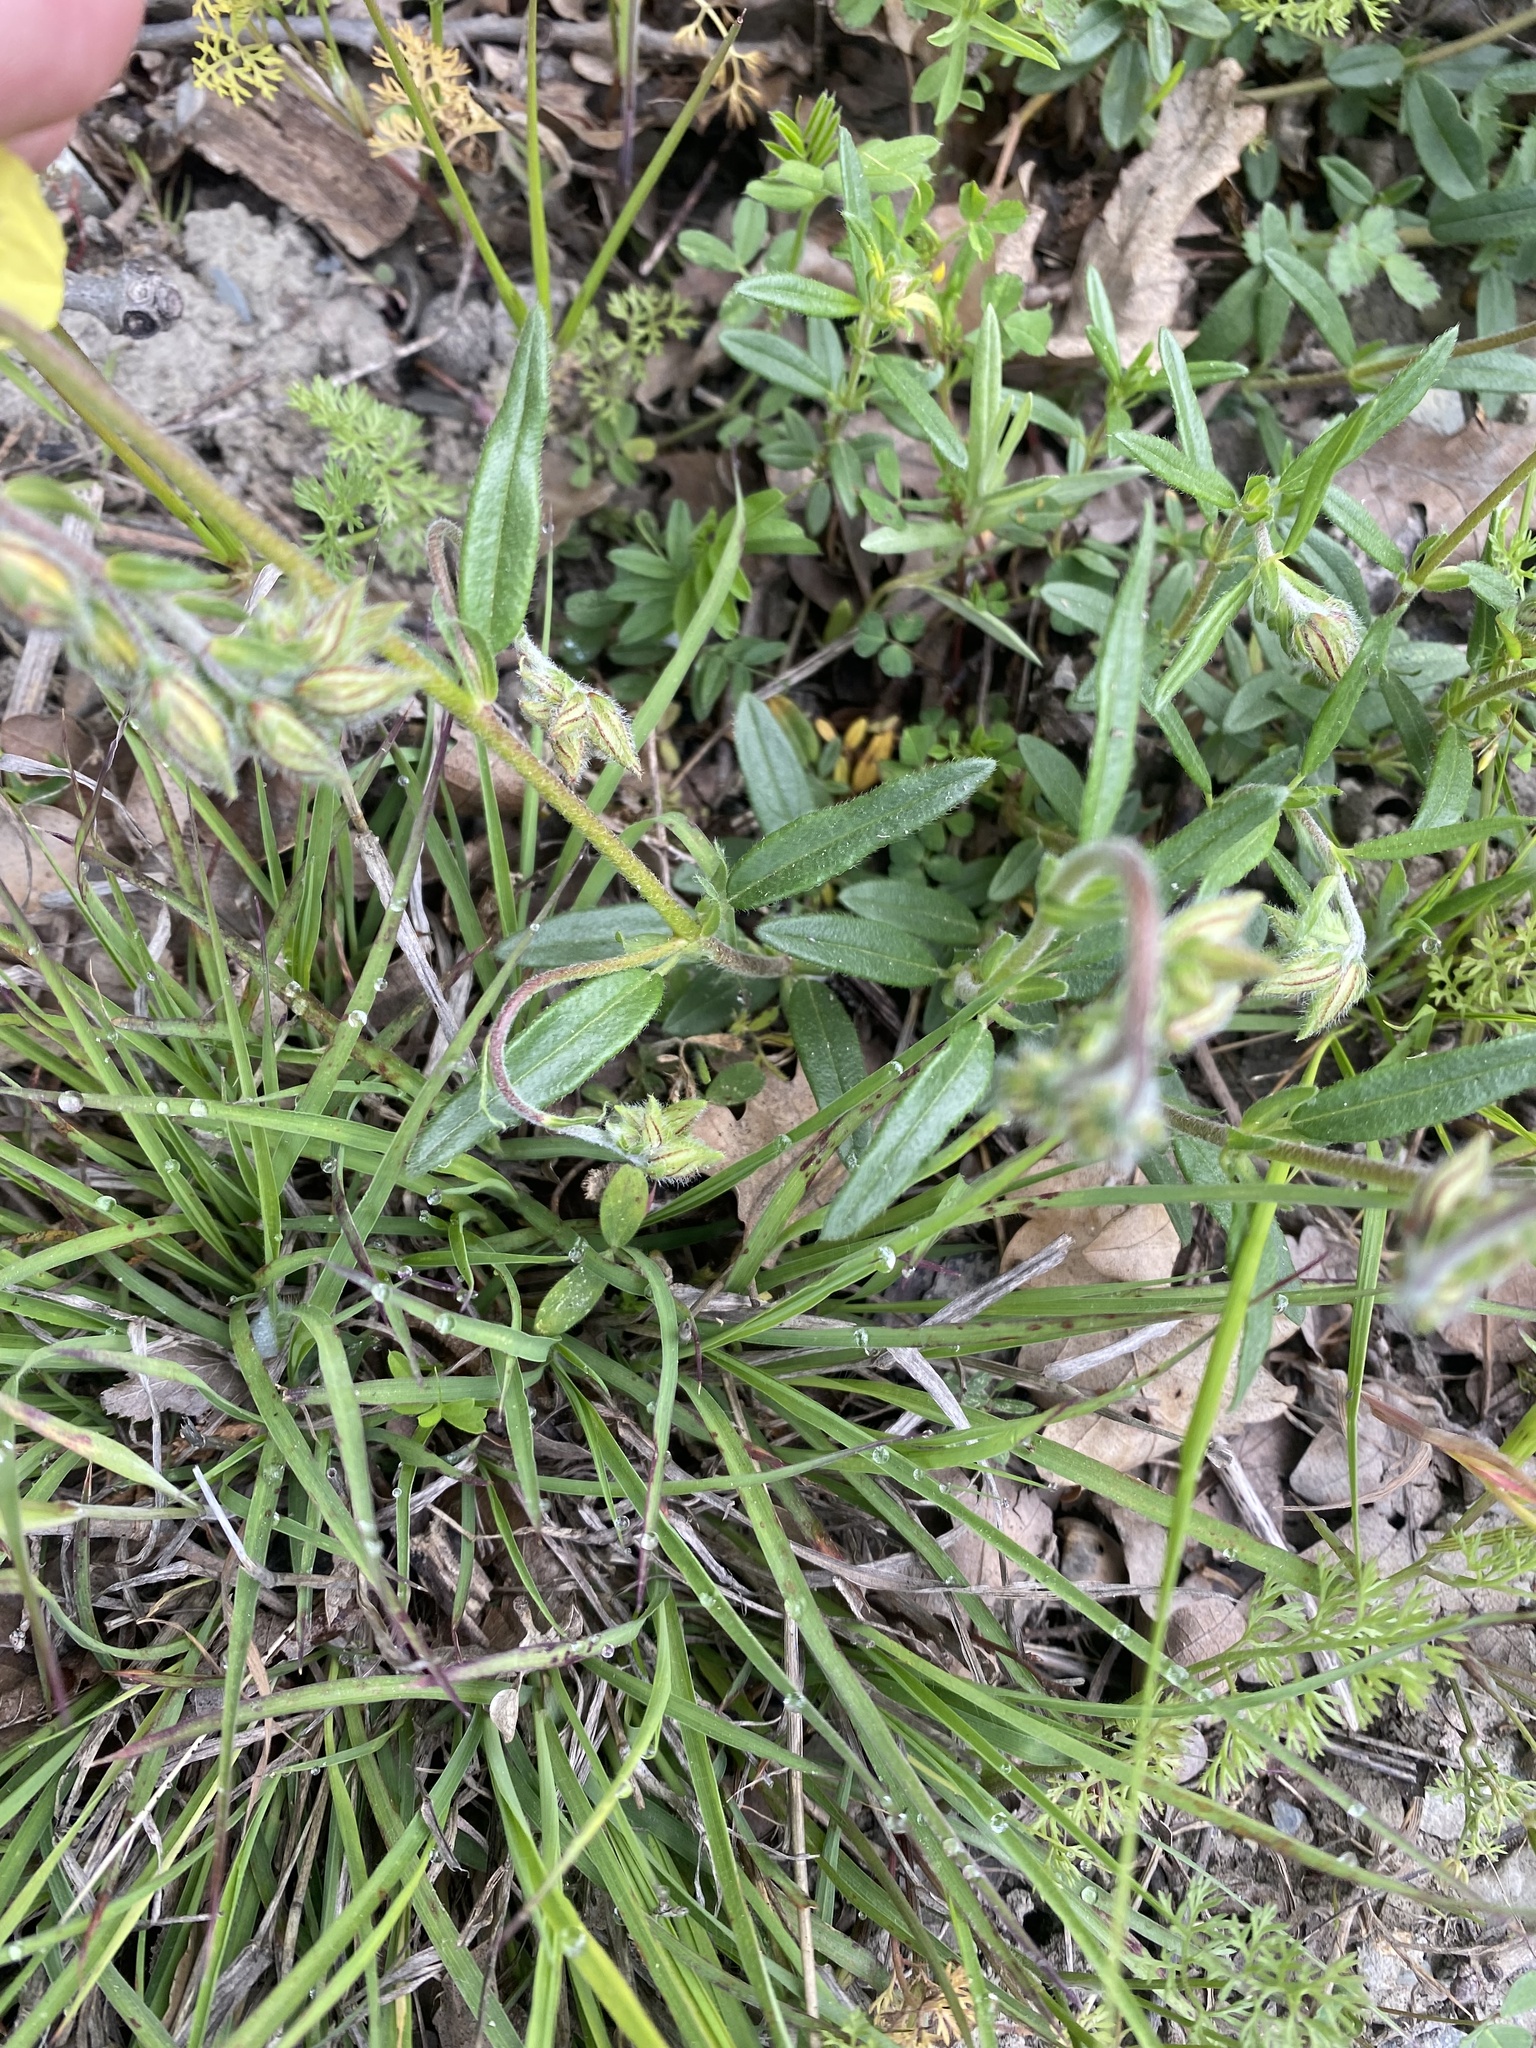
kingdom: Plantae
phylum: Tracheophyta
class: Magnoliopsida
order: Malvales
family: Cistaceae
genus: Helianthemum
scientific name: Helianthemum nummularium
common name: Common rock-rose
